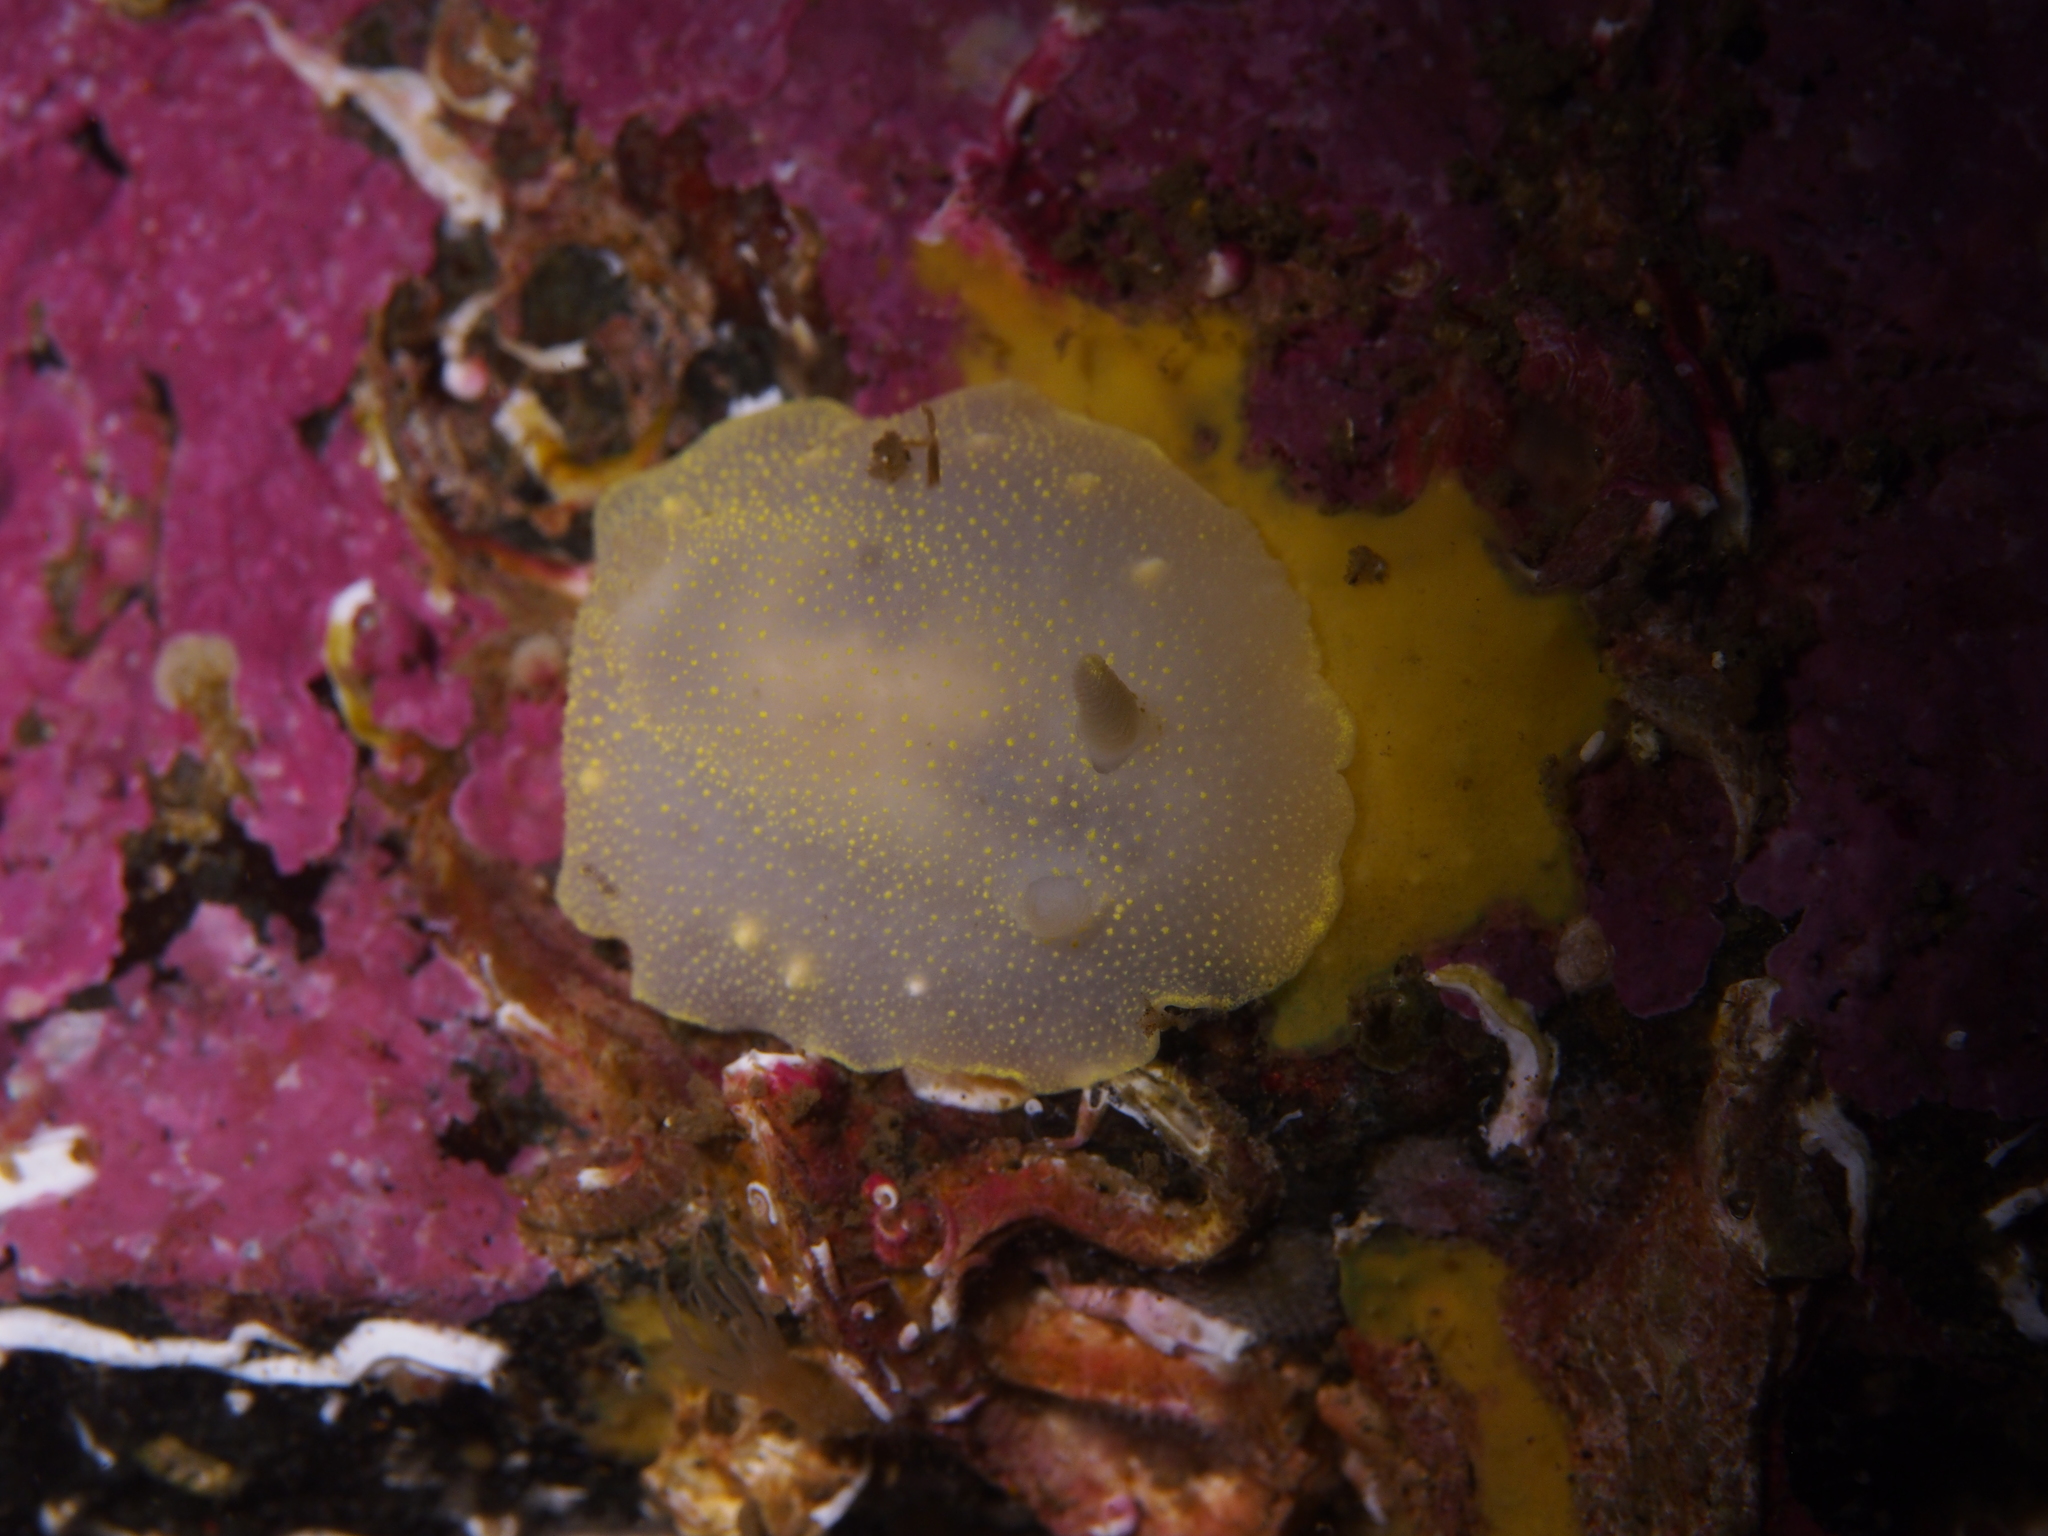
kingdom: Animalia
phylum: Mollusca
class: Gastropoda
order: Nudibranchia
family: Cadlinidae
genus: Cadlina
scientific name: Cadlina laevis
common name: White atlantic cadlina
